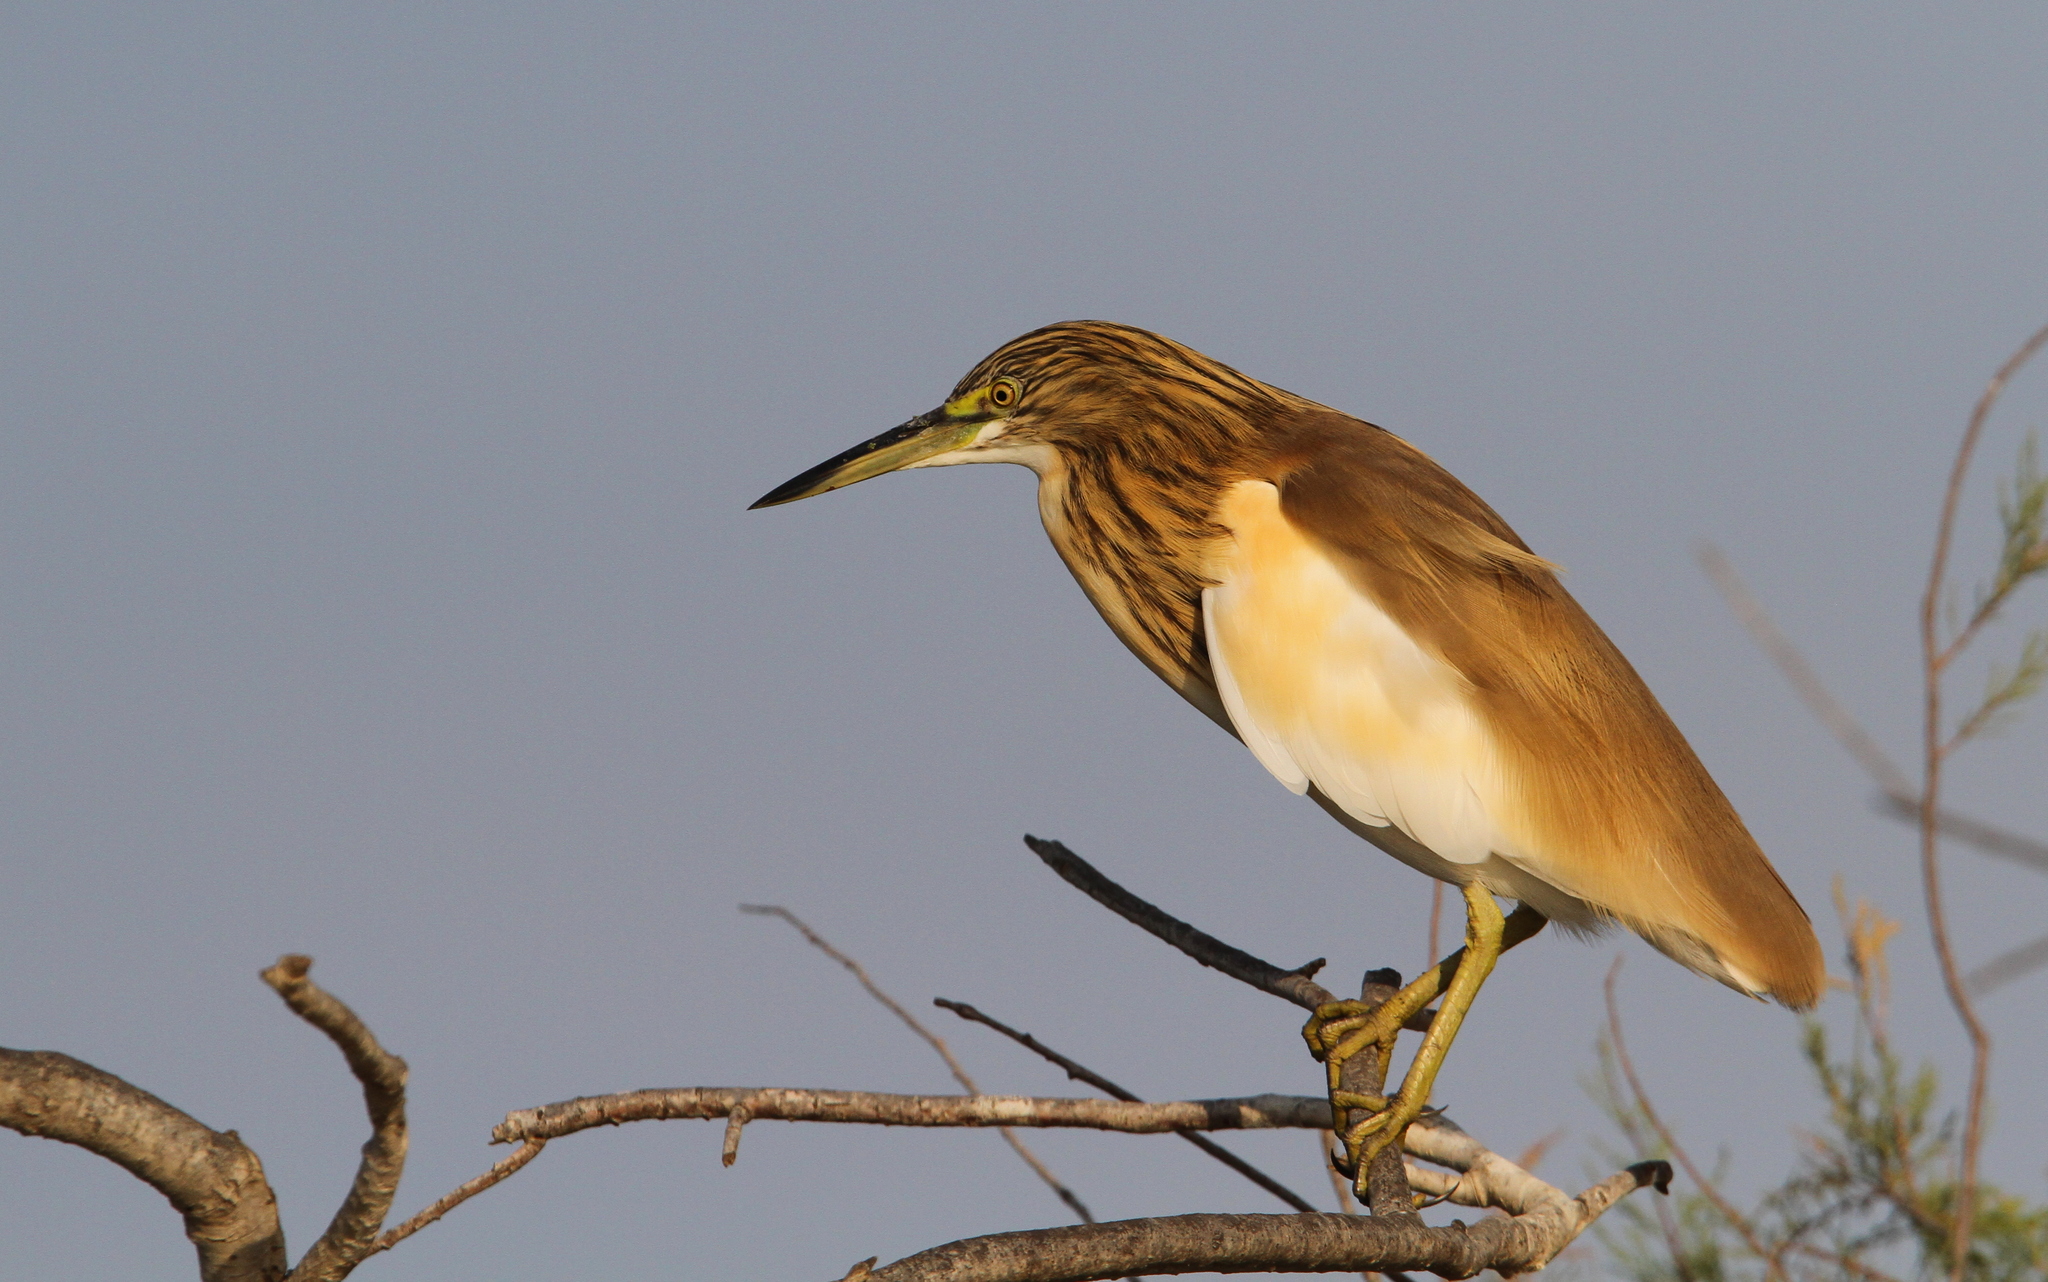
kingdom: Animalia
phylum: Chordata
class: Aves
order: Pelecaniformes
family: Ardeidae
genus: Ardeola
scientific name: Ardeola ralloides
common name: Squacco heron
